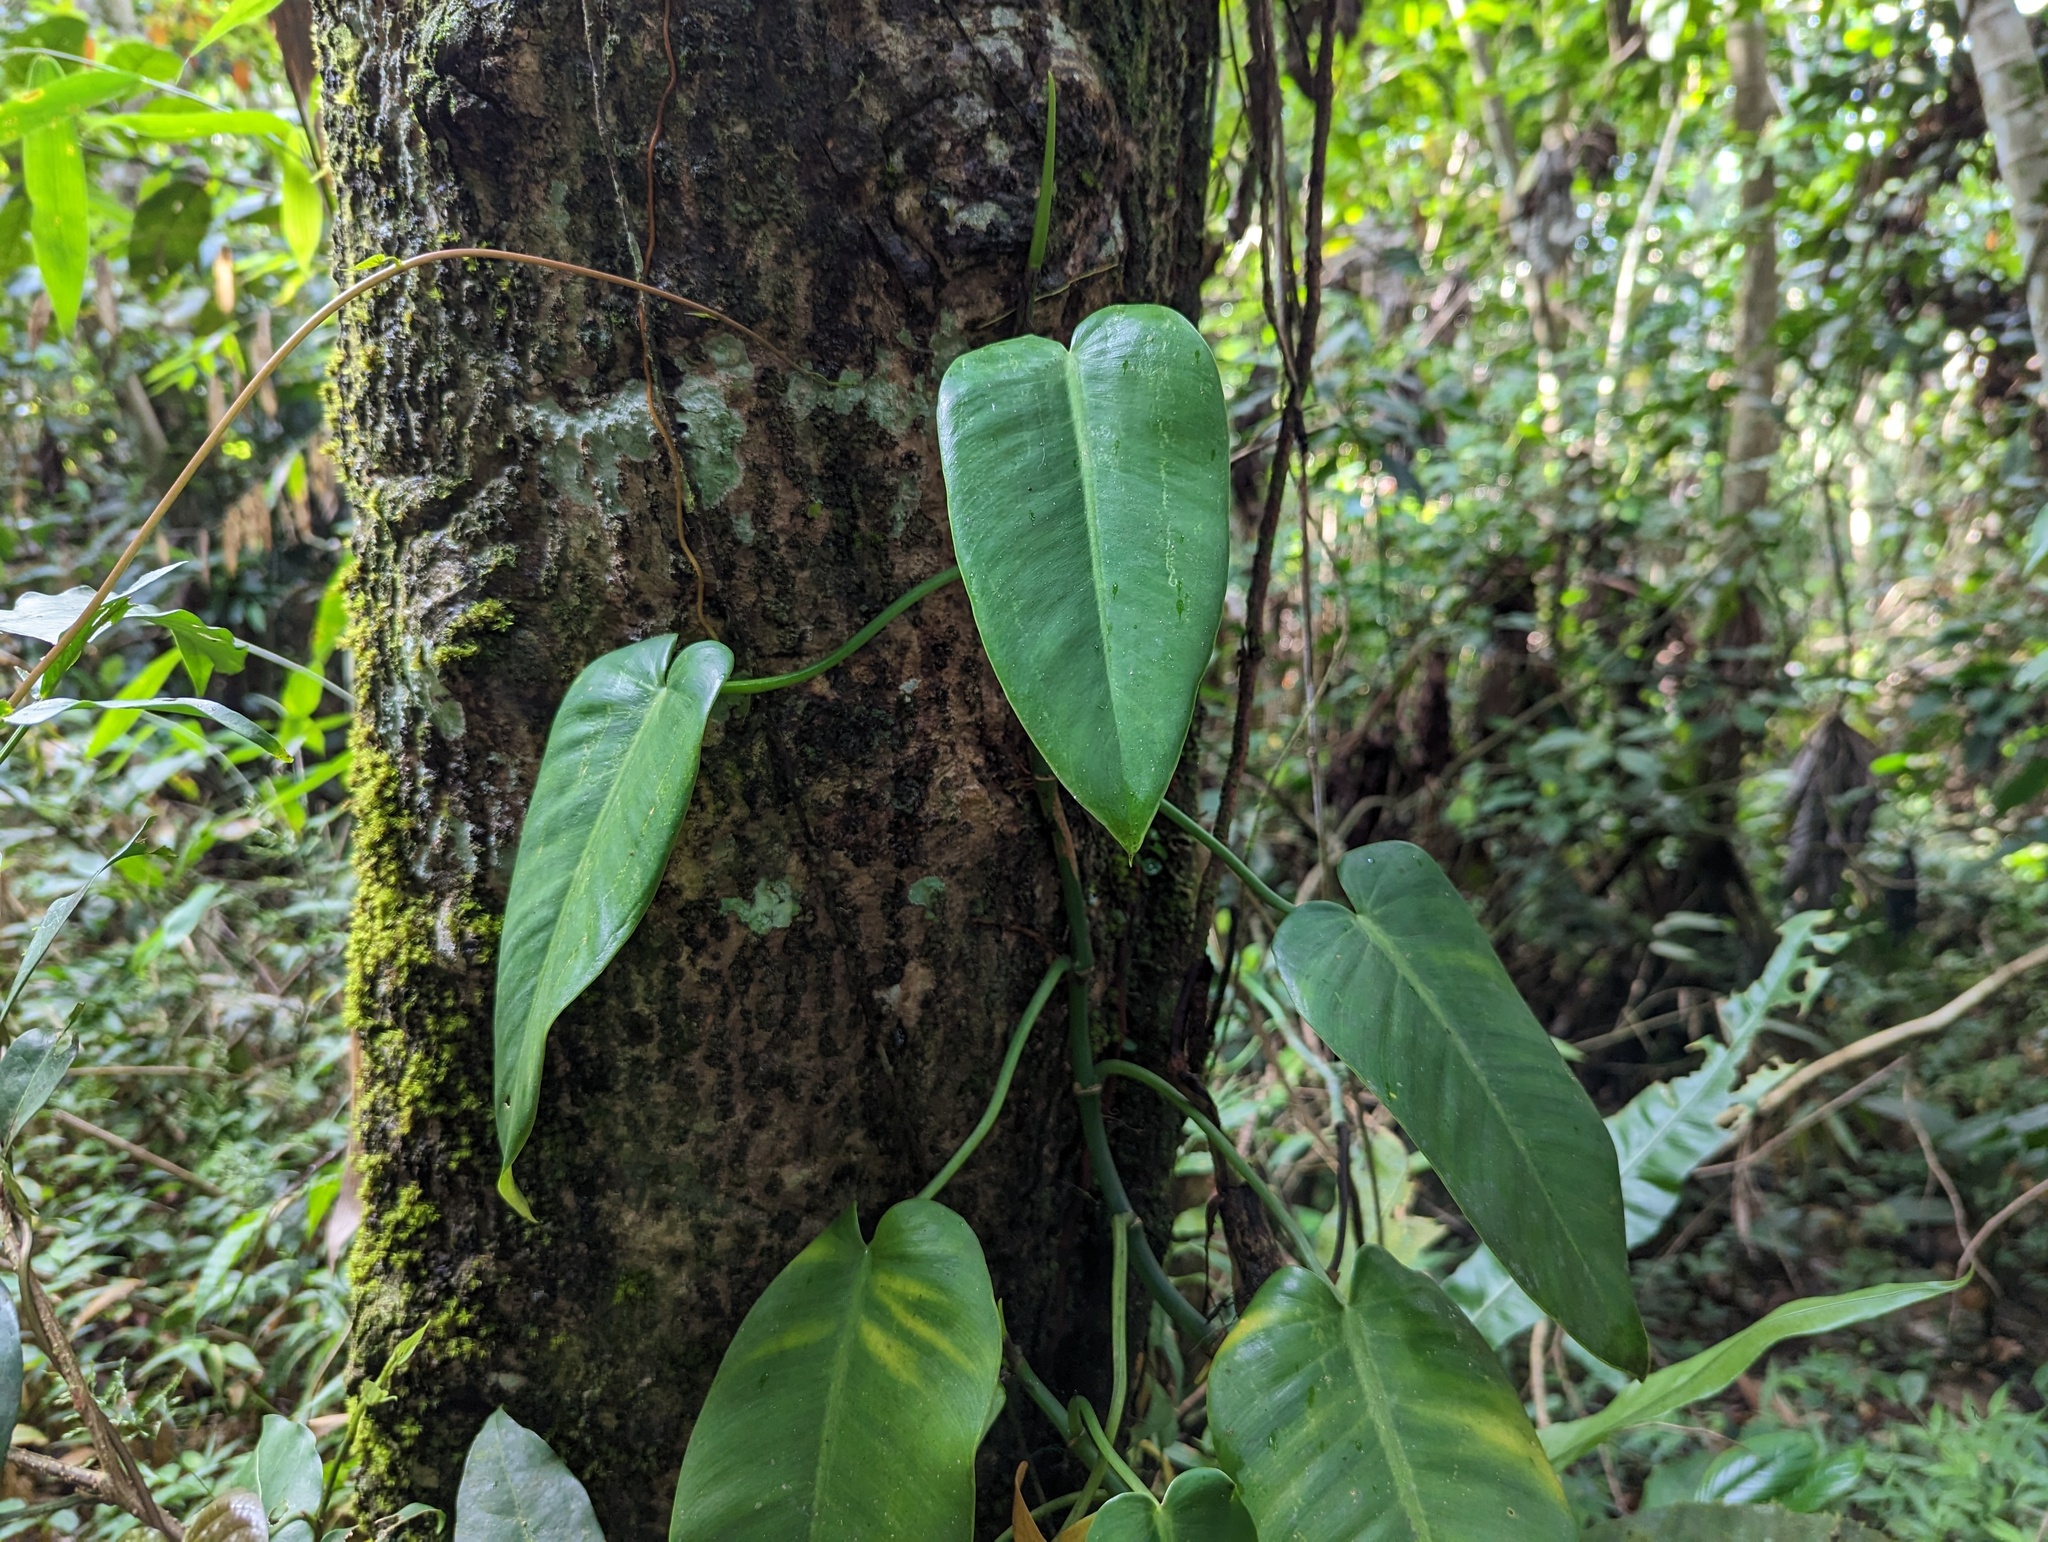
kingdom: Plantae
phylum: Tracheophyta
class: Liliopsida
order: Alismatales
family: Araceae
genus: Philodendron
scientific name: Philodendron consanguineum
